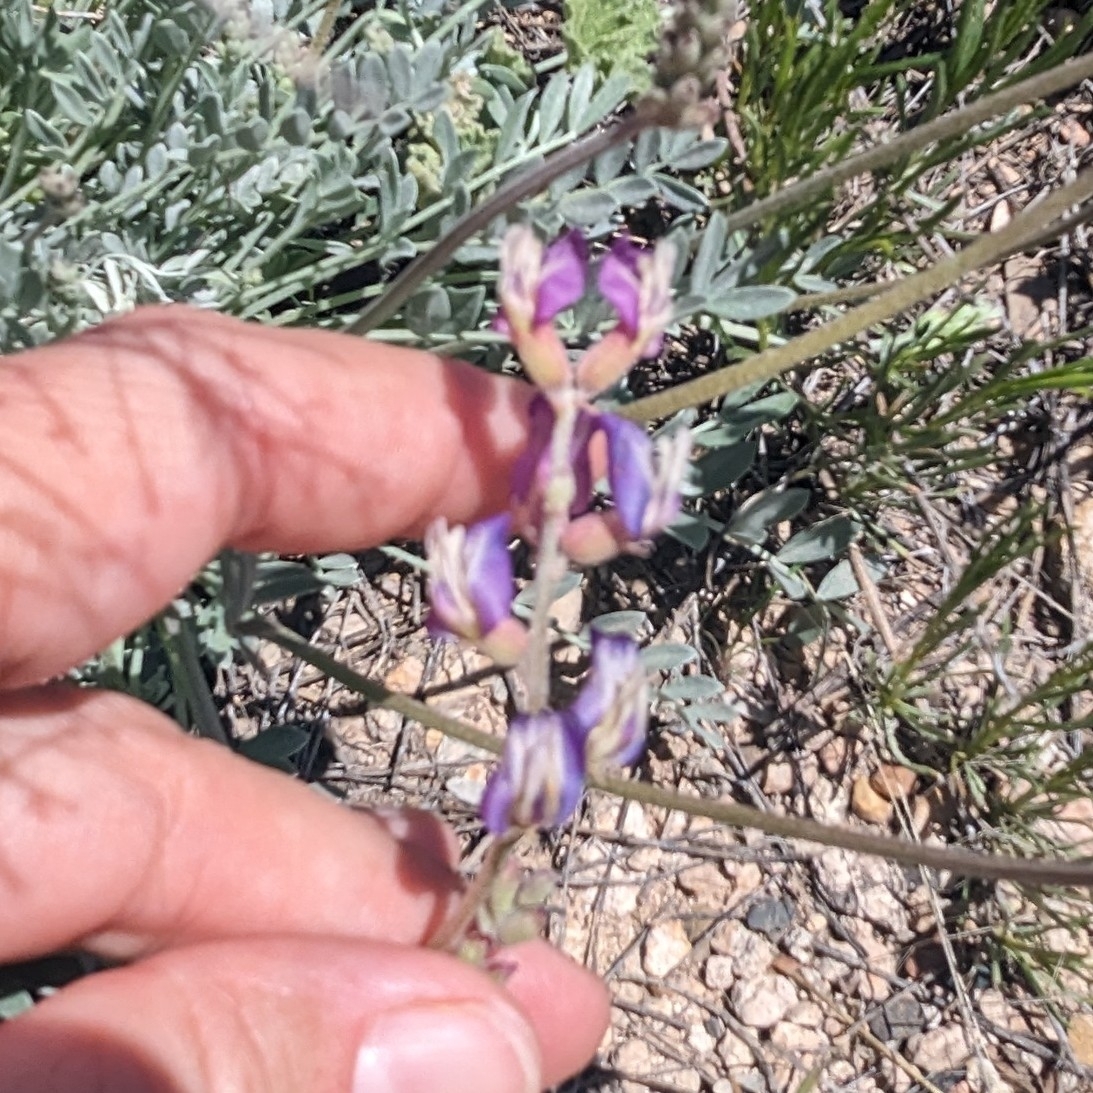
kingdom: Plantae
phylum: Tracheophyta
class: Magnoliopsida
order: Fabales
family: Fabaceae
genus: Astragalus
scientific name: Astragalus calycosus
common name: King's milkvetch
